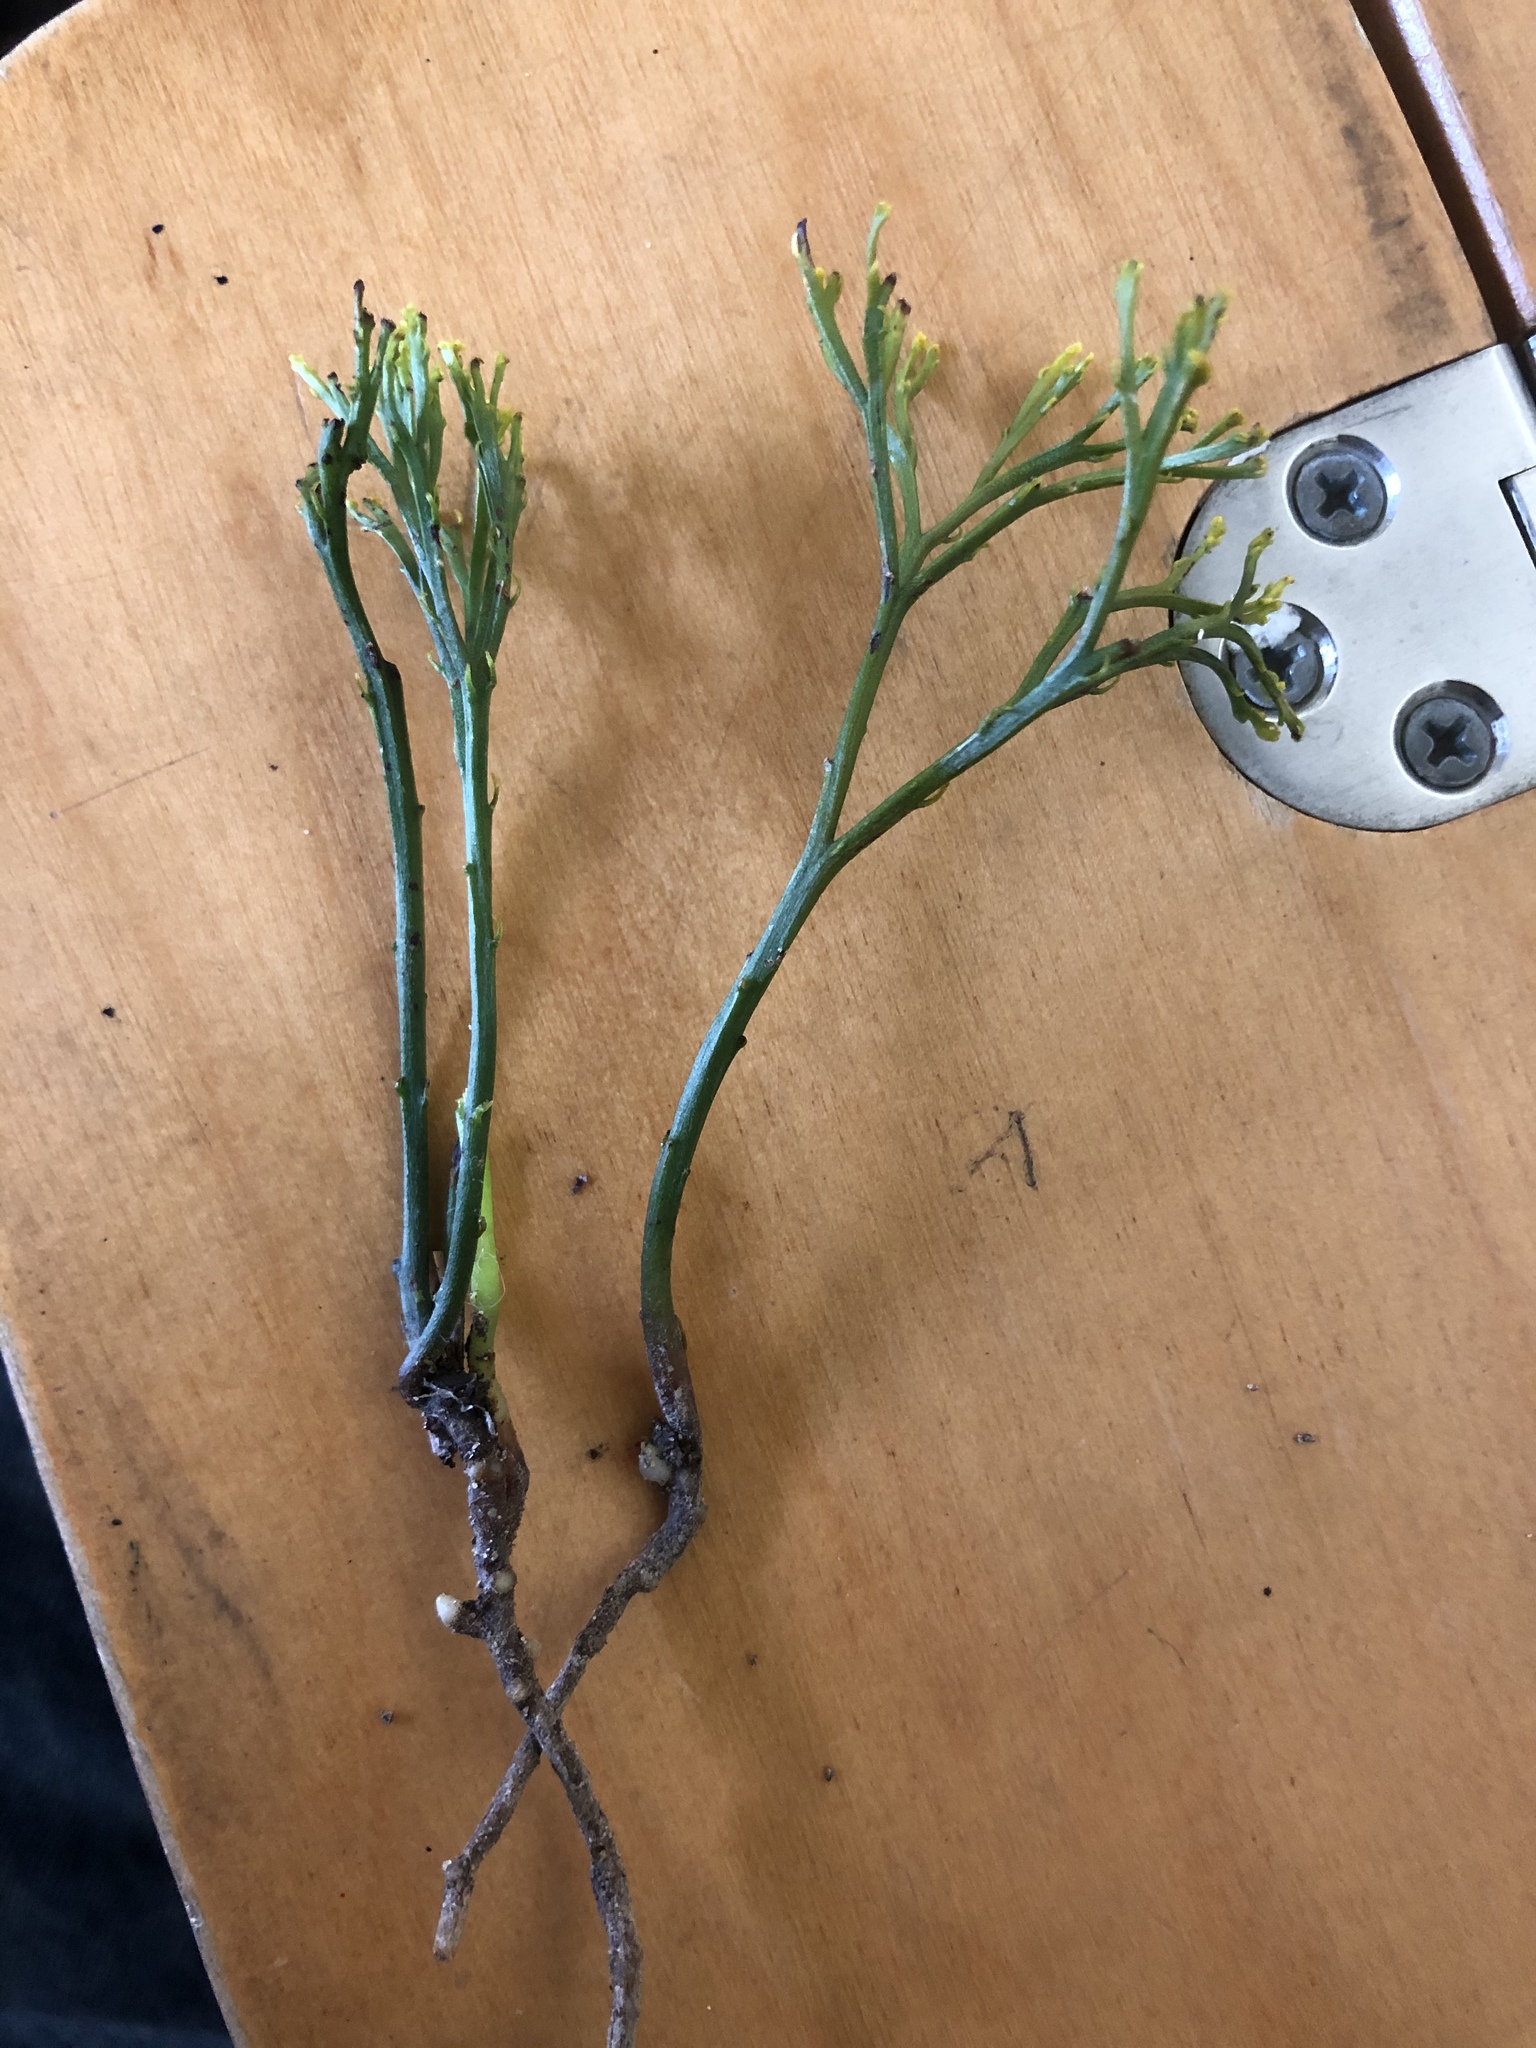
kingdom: Plantae
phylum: Tracheophyta
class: Polypodiopsida
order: Psilotales
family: Psilotaceae
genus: Psilotum
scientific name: Psilotum nudum
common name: Skeleton fork fern
